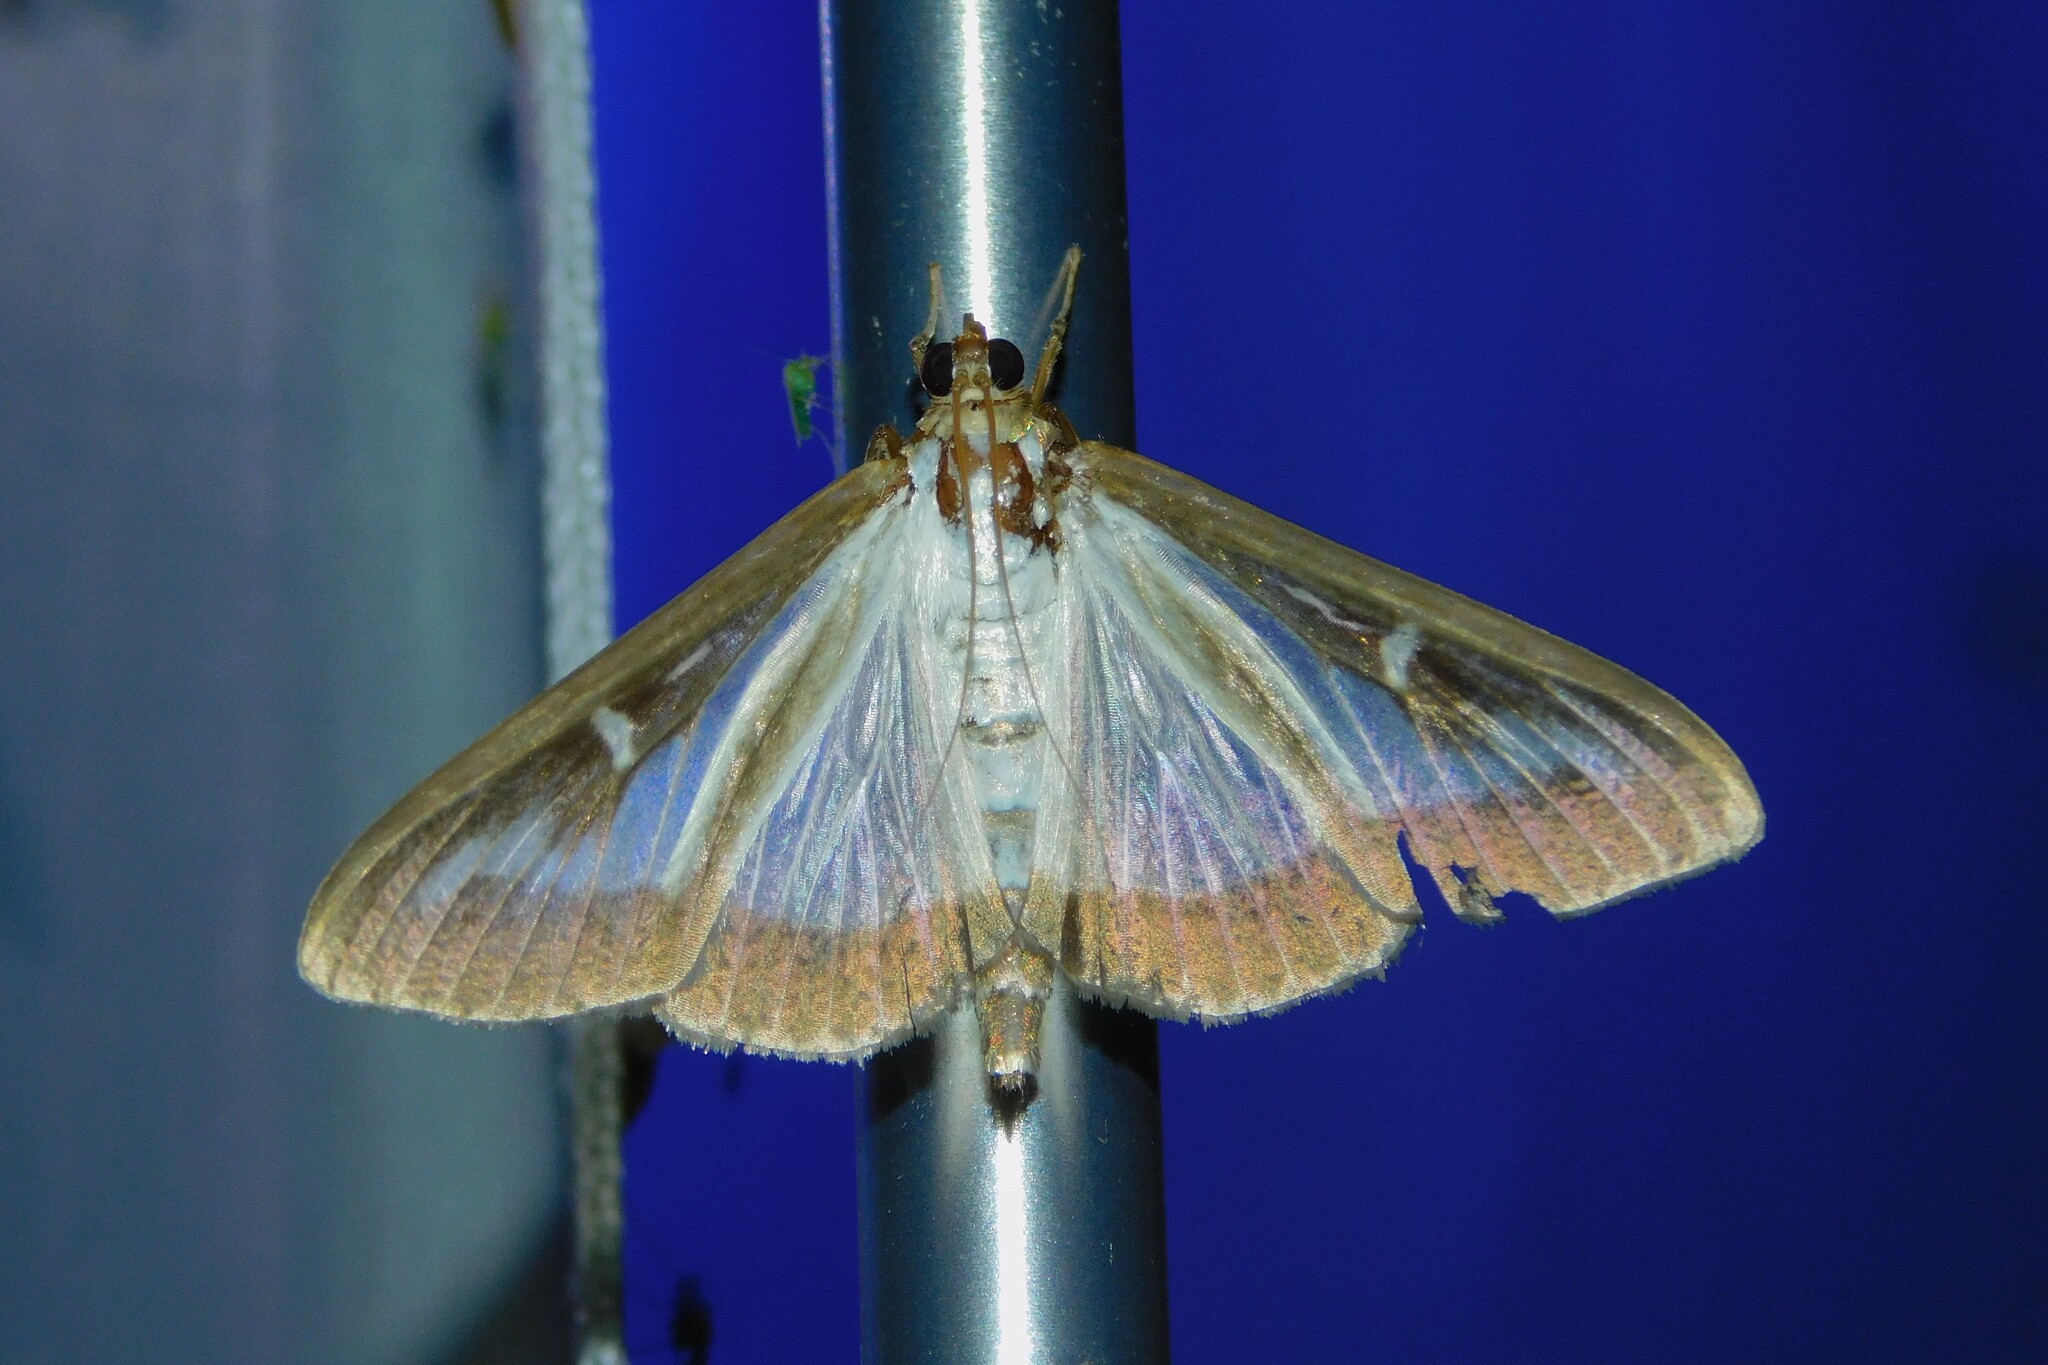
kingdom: Animalia
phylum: Arthropoda
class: Insecta
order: Lepidoptera
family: Crambidae
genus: Cydalima
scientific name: Cydalima perspectalis
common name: Box tree moth
